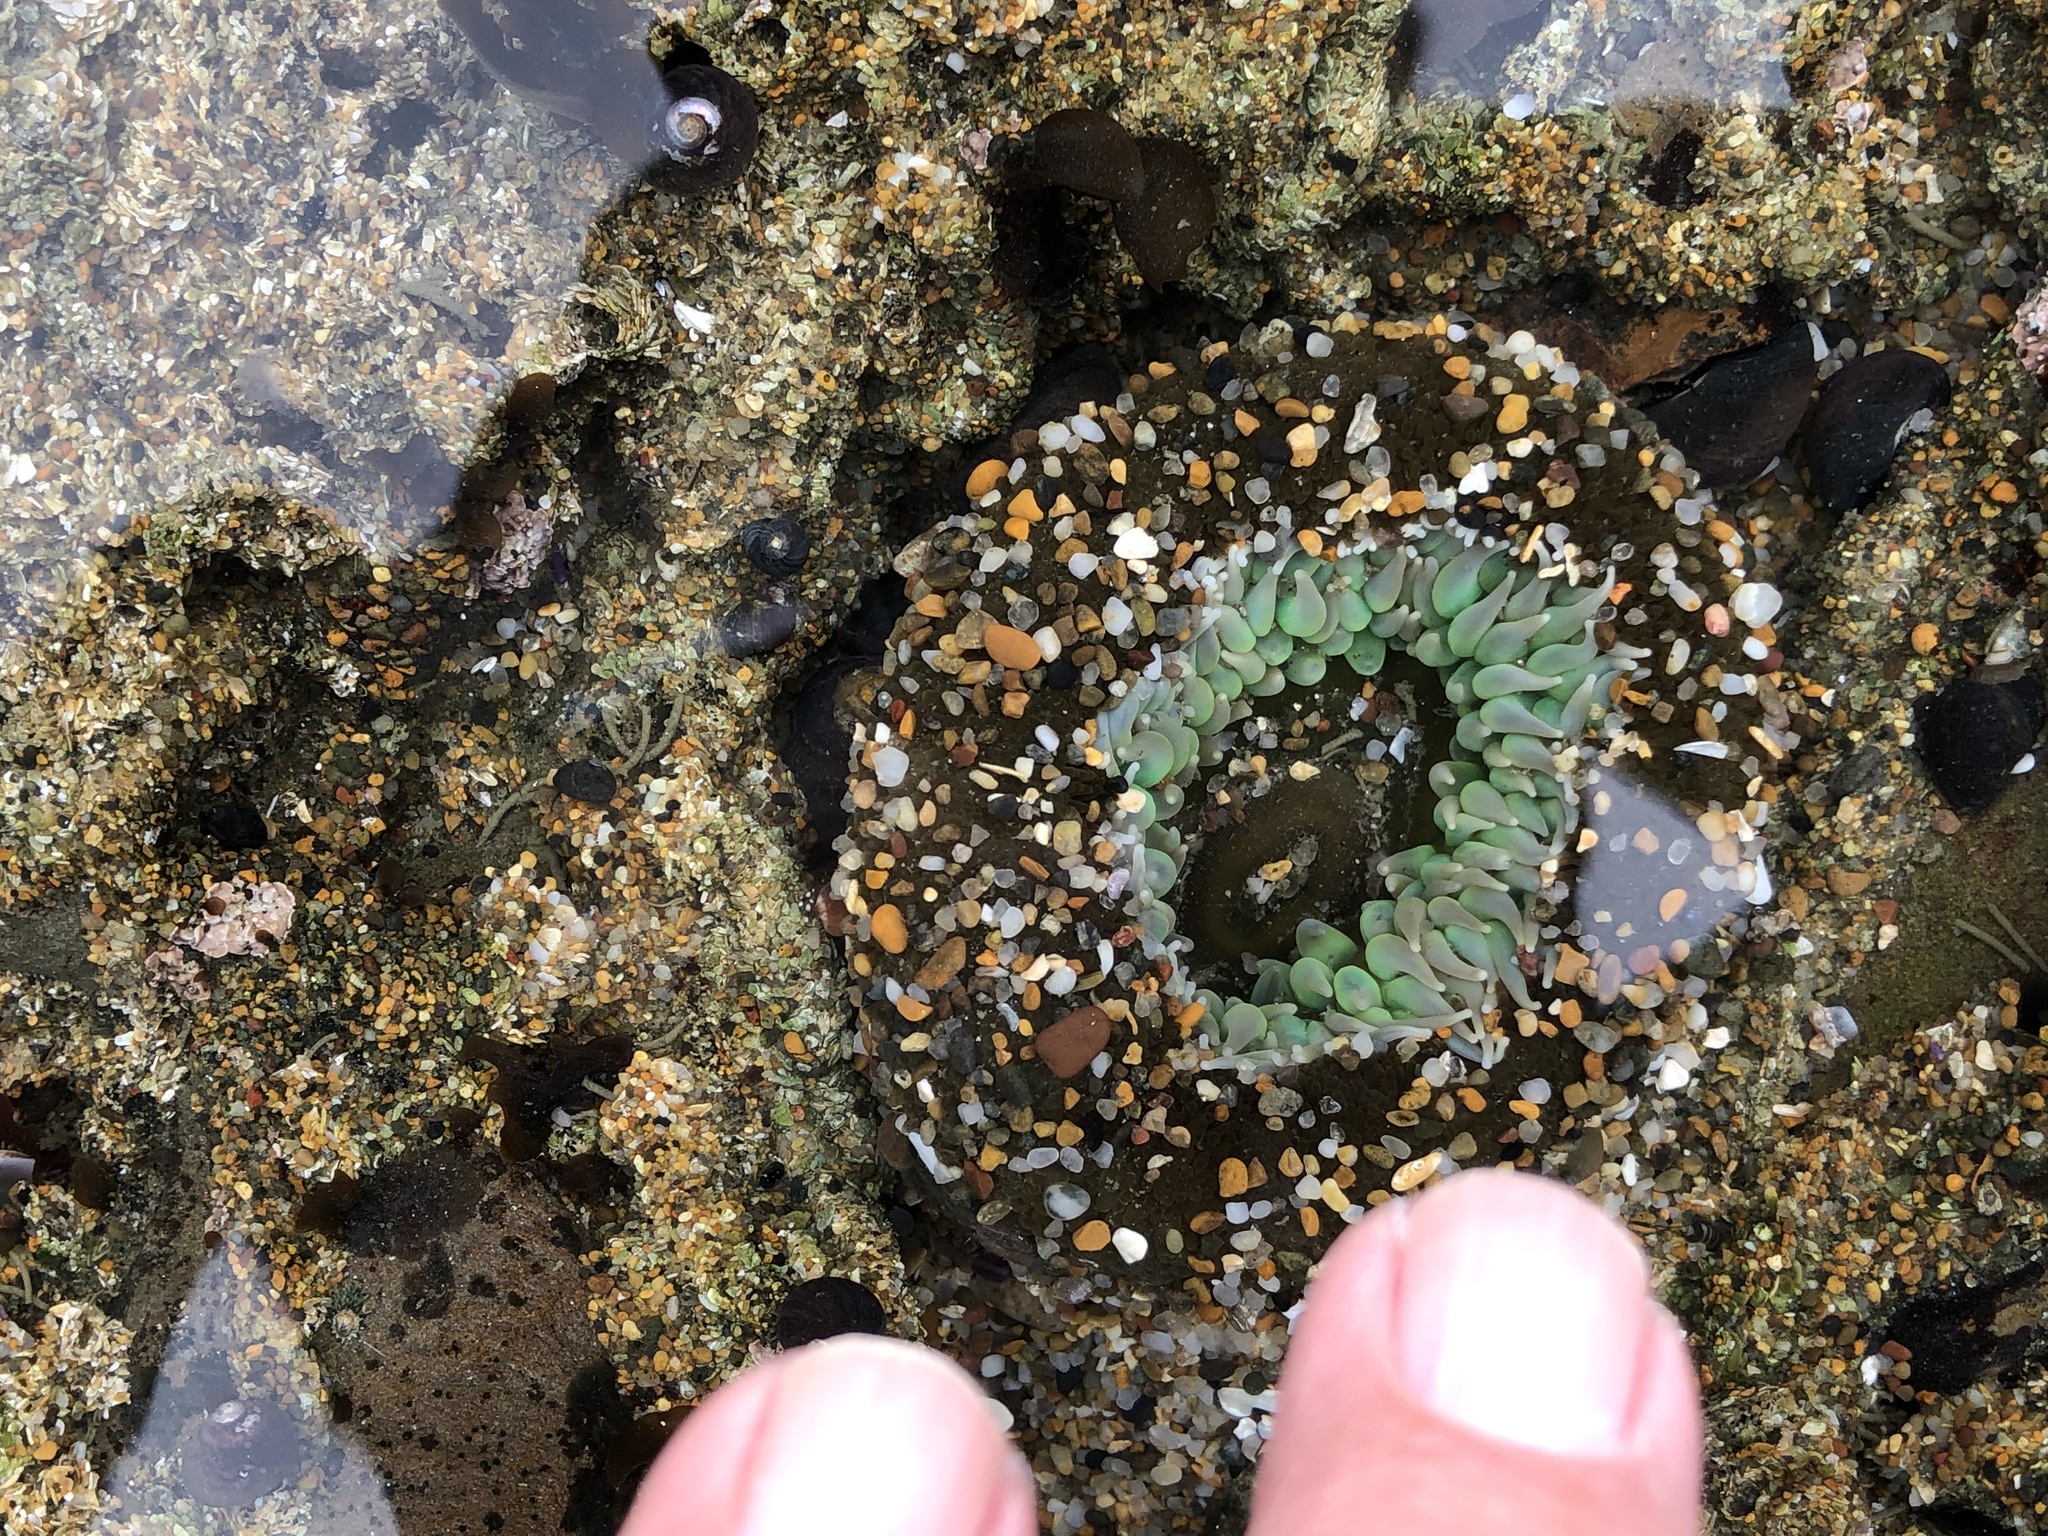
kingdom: Animalia
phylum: Cnidaria
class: Anthozoa
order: Actiniaria
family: Actiniidae
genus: Anthopleura
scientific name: Anthopleura xanthogrammica
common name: Giant green anemone
